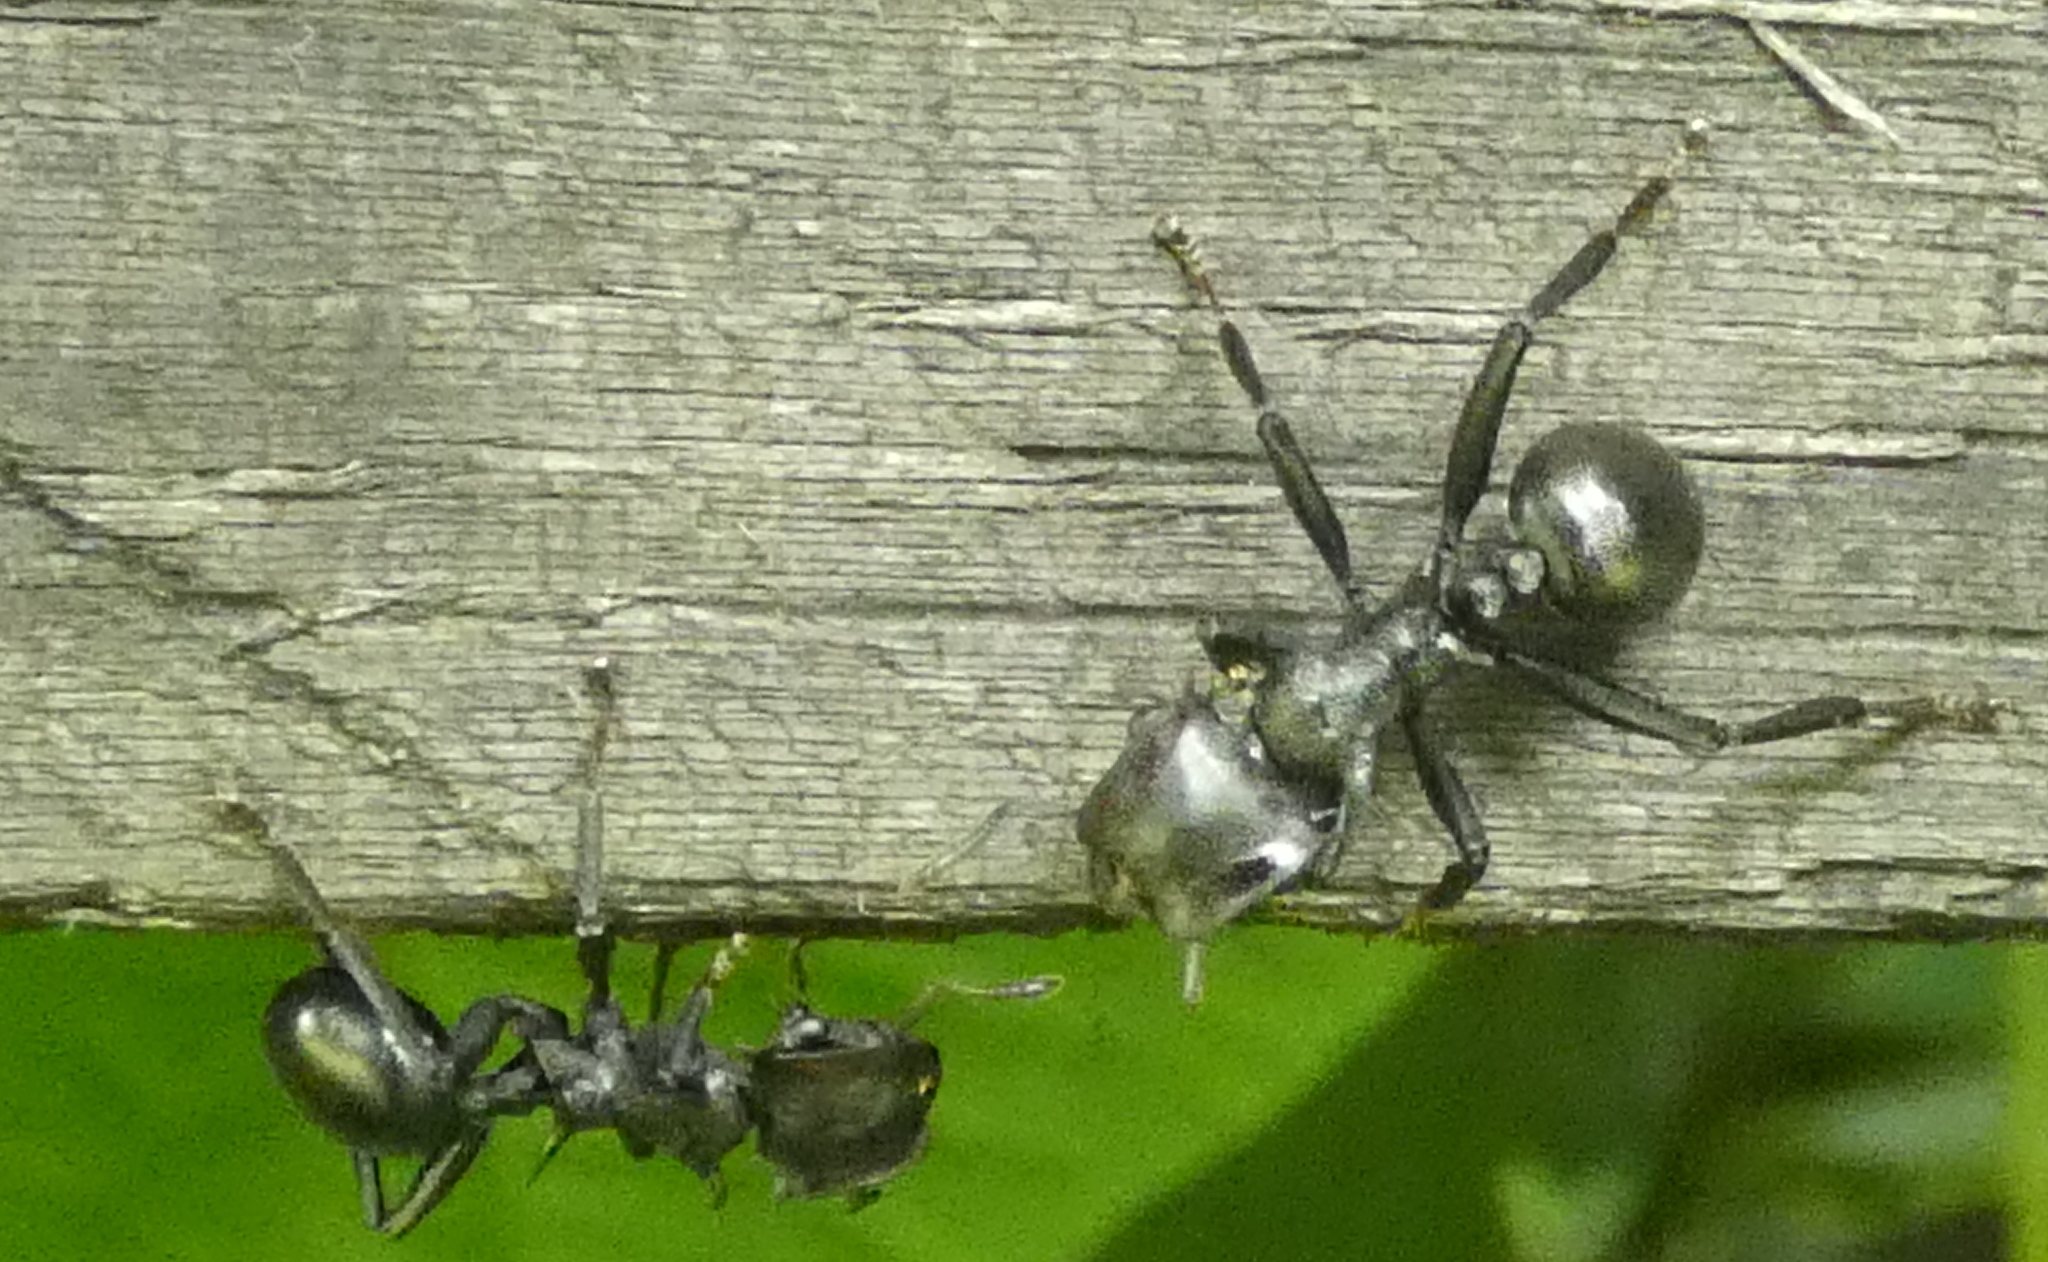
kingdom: Animalia
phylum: Arthropoda
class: Insecta
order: Hymenoptera
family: Formicidae
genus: Cephalotes
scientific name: Cephalotes atratus
